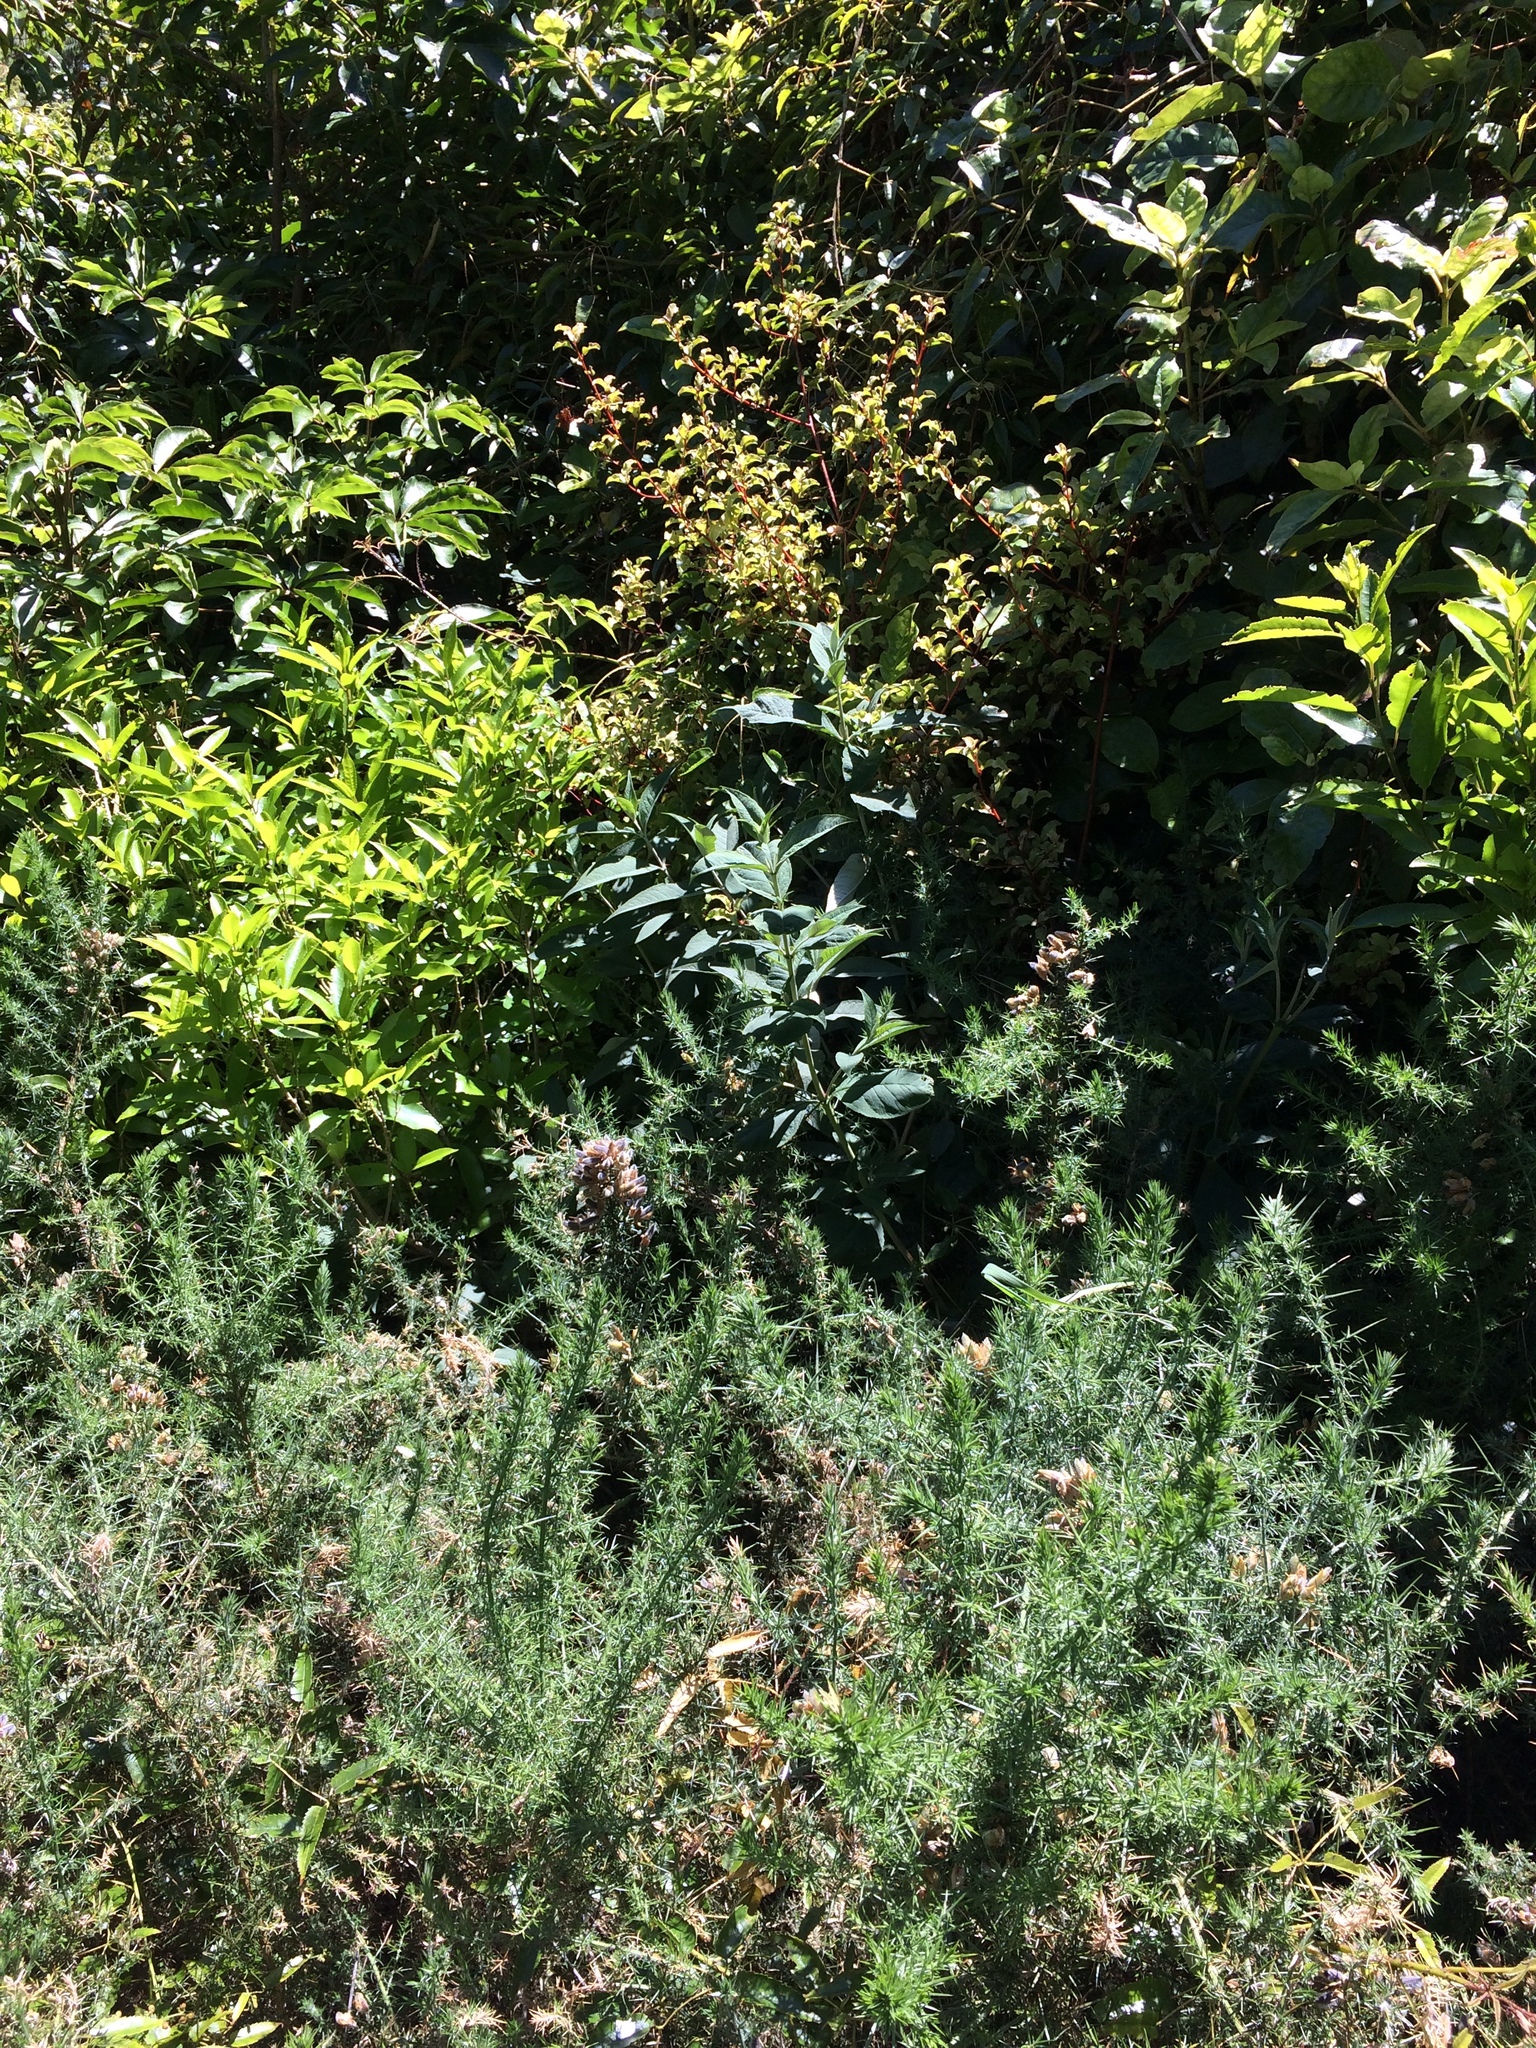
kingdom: Plantae
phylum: Tracheophyta
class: Magnoliopsida
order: Lamiales
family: Scrophulariaceae
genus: Buddleja
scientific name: Buddleja davidii
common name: Butterfly-bush
